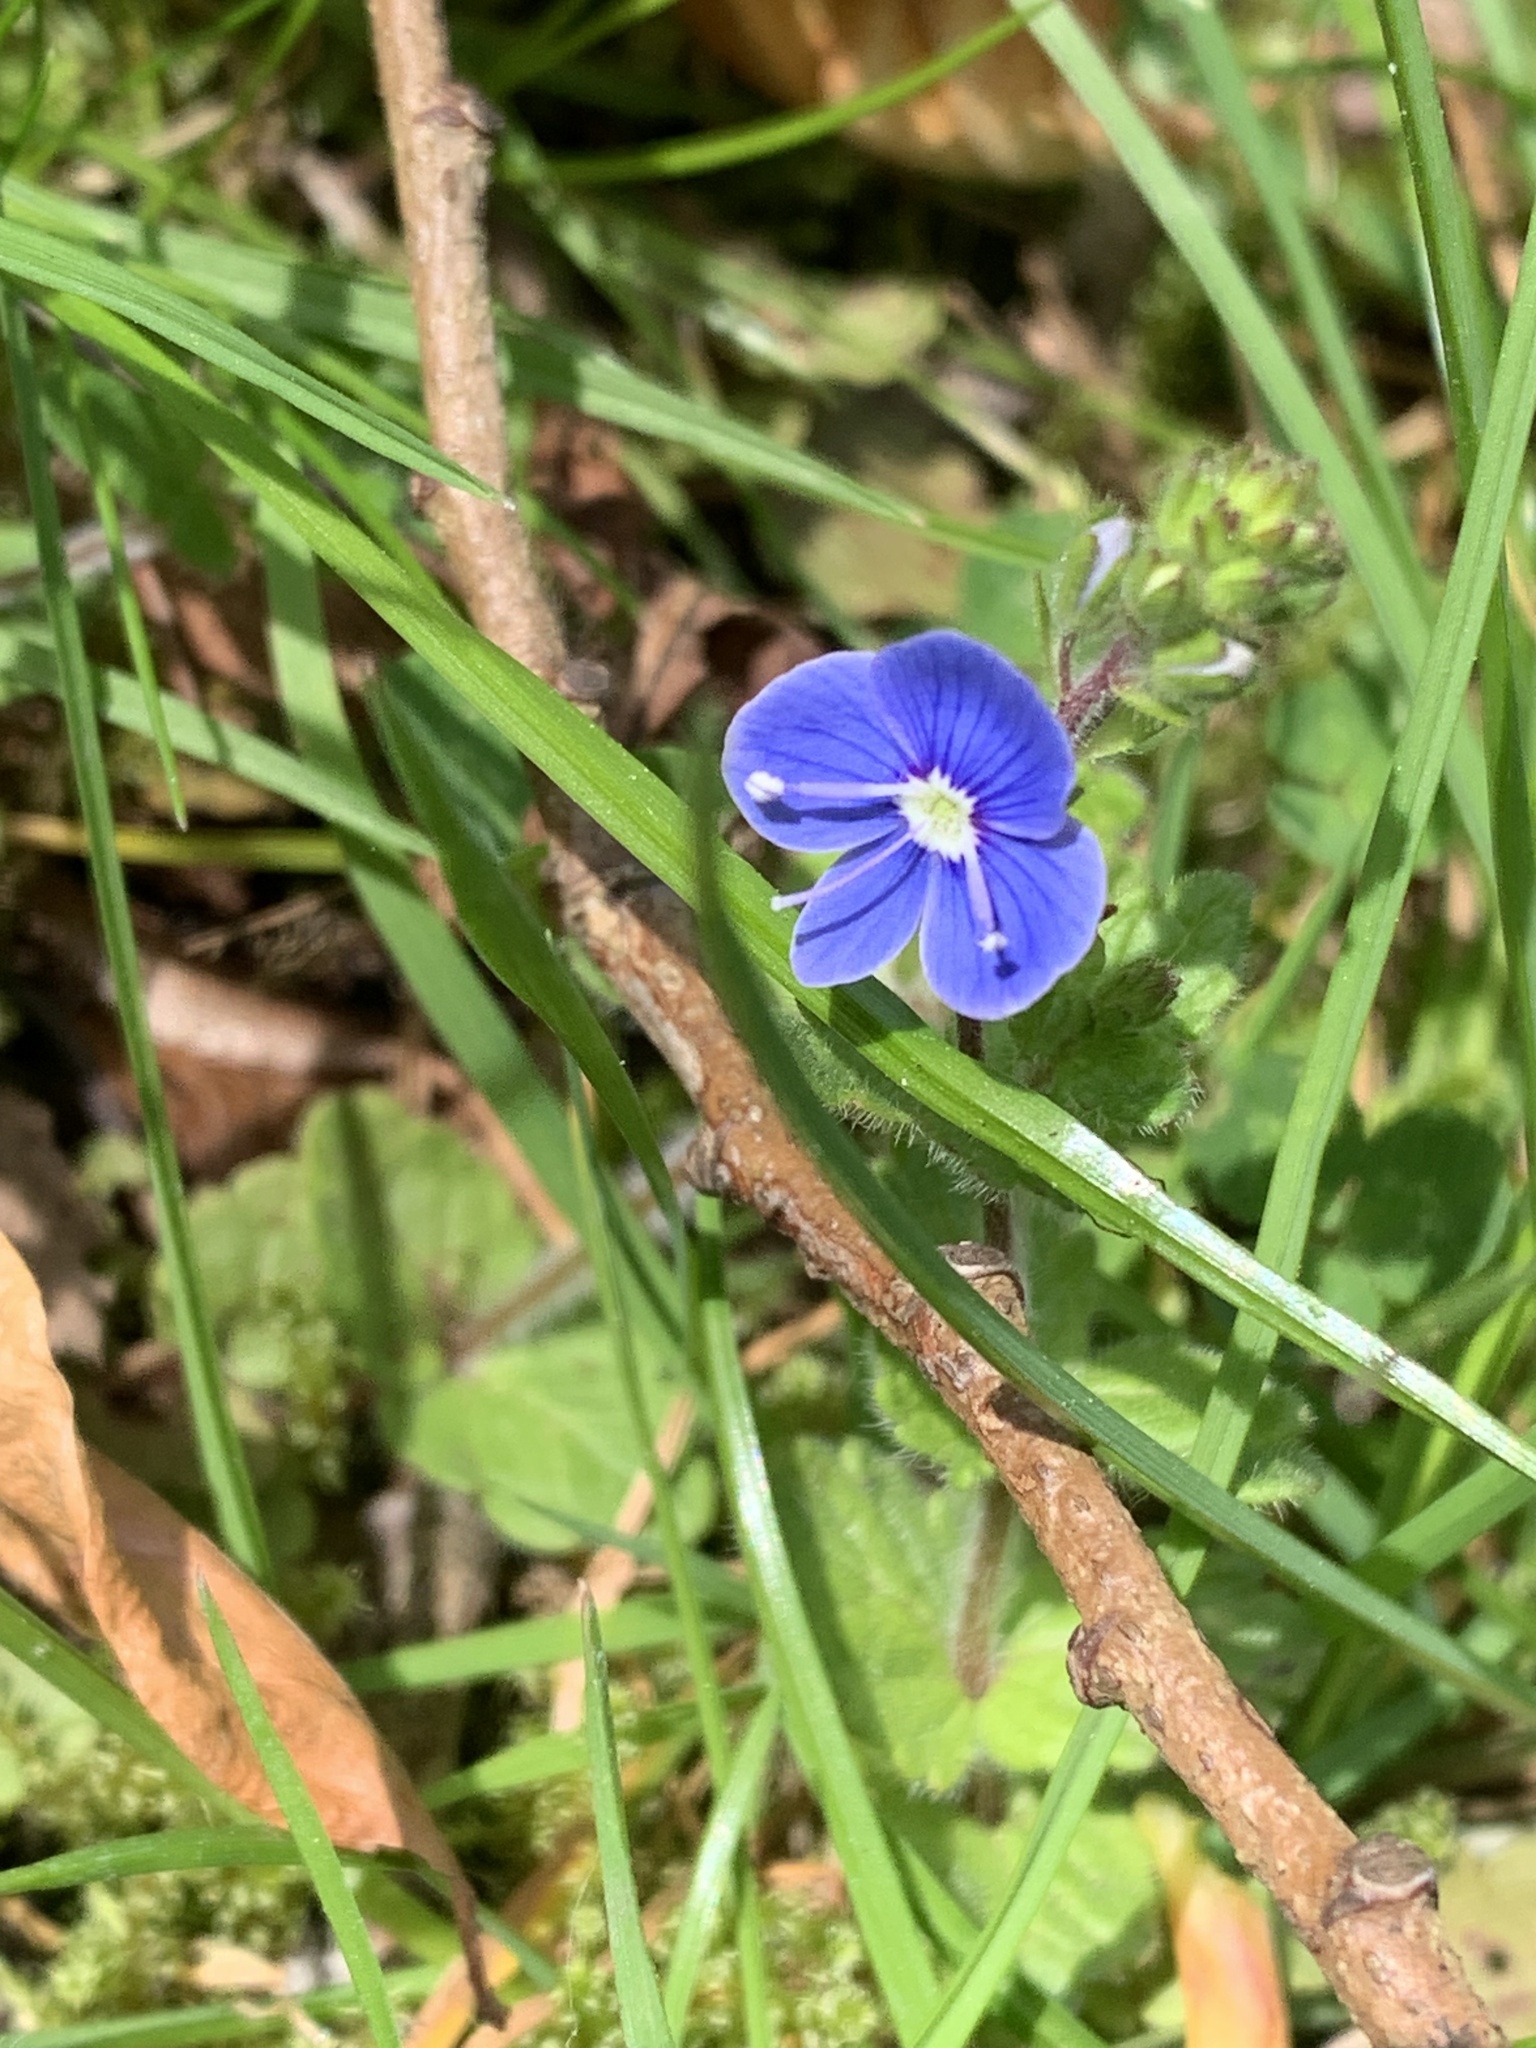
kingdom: Plantae
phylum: Tracheophyta
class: Magnoliopsida
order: Lamiales
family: Plantaginaceae
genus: Veronica
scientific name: Veronica chamaedrys
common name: Germander speedwell
